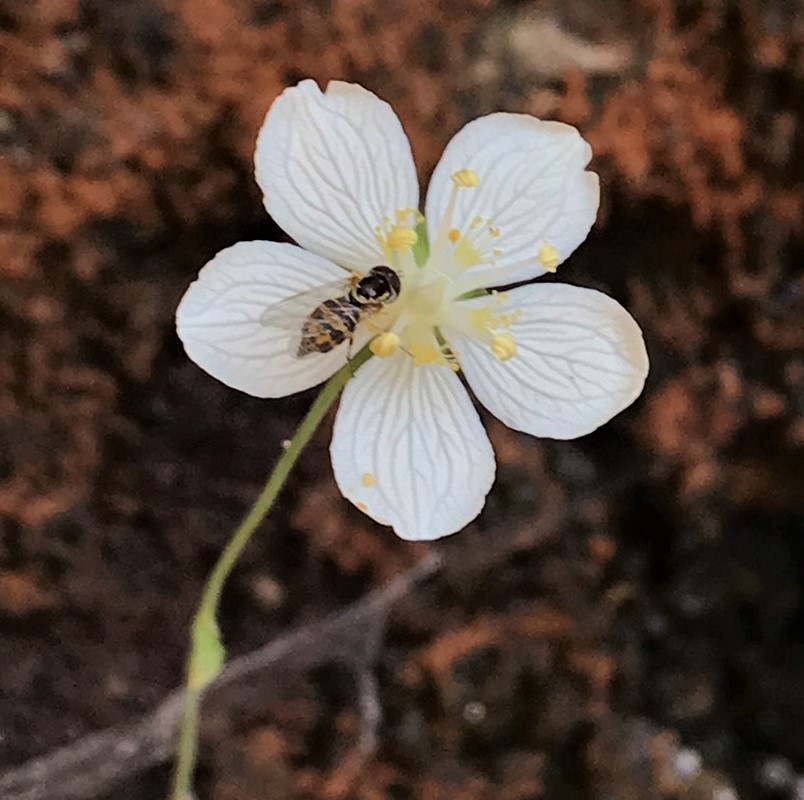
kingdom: Animalia
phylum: Arthropoda
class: Insecta
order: Diptera
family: Syrphidae
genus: Toxomerus
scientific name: Toxomerus occidentalis
